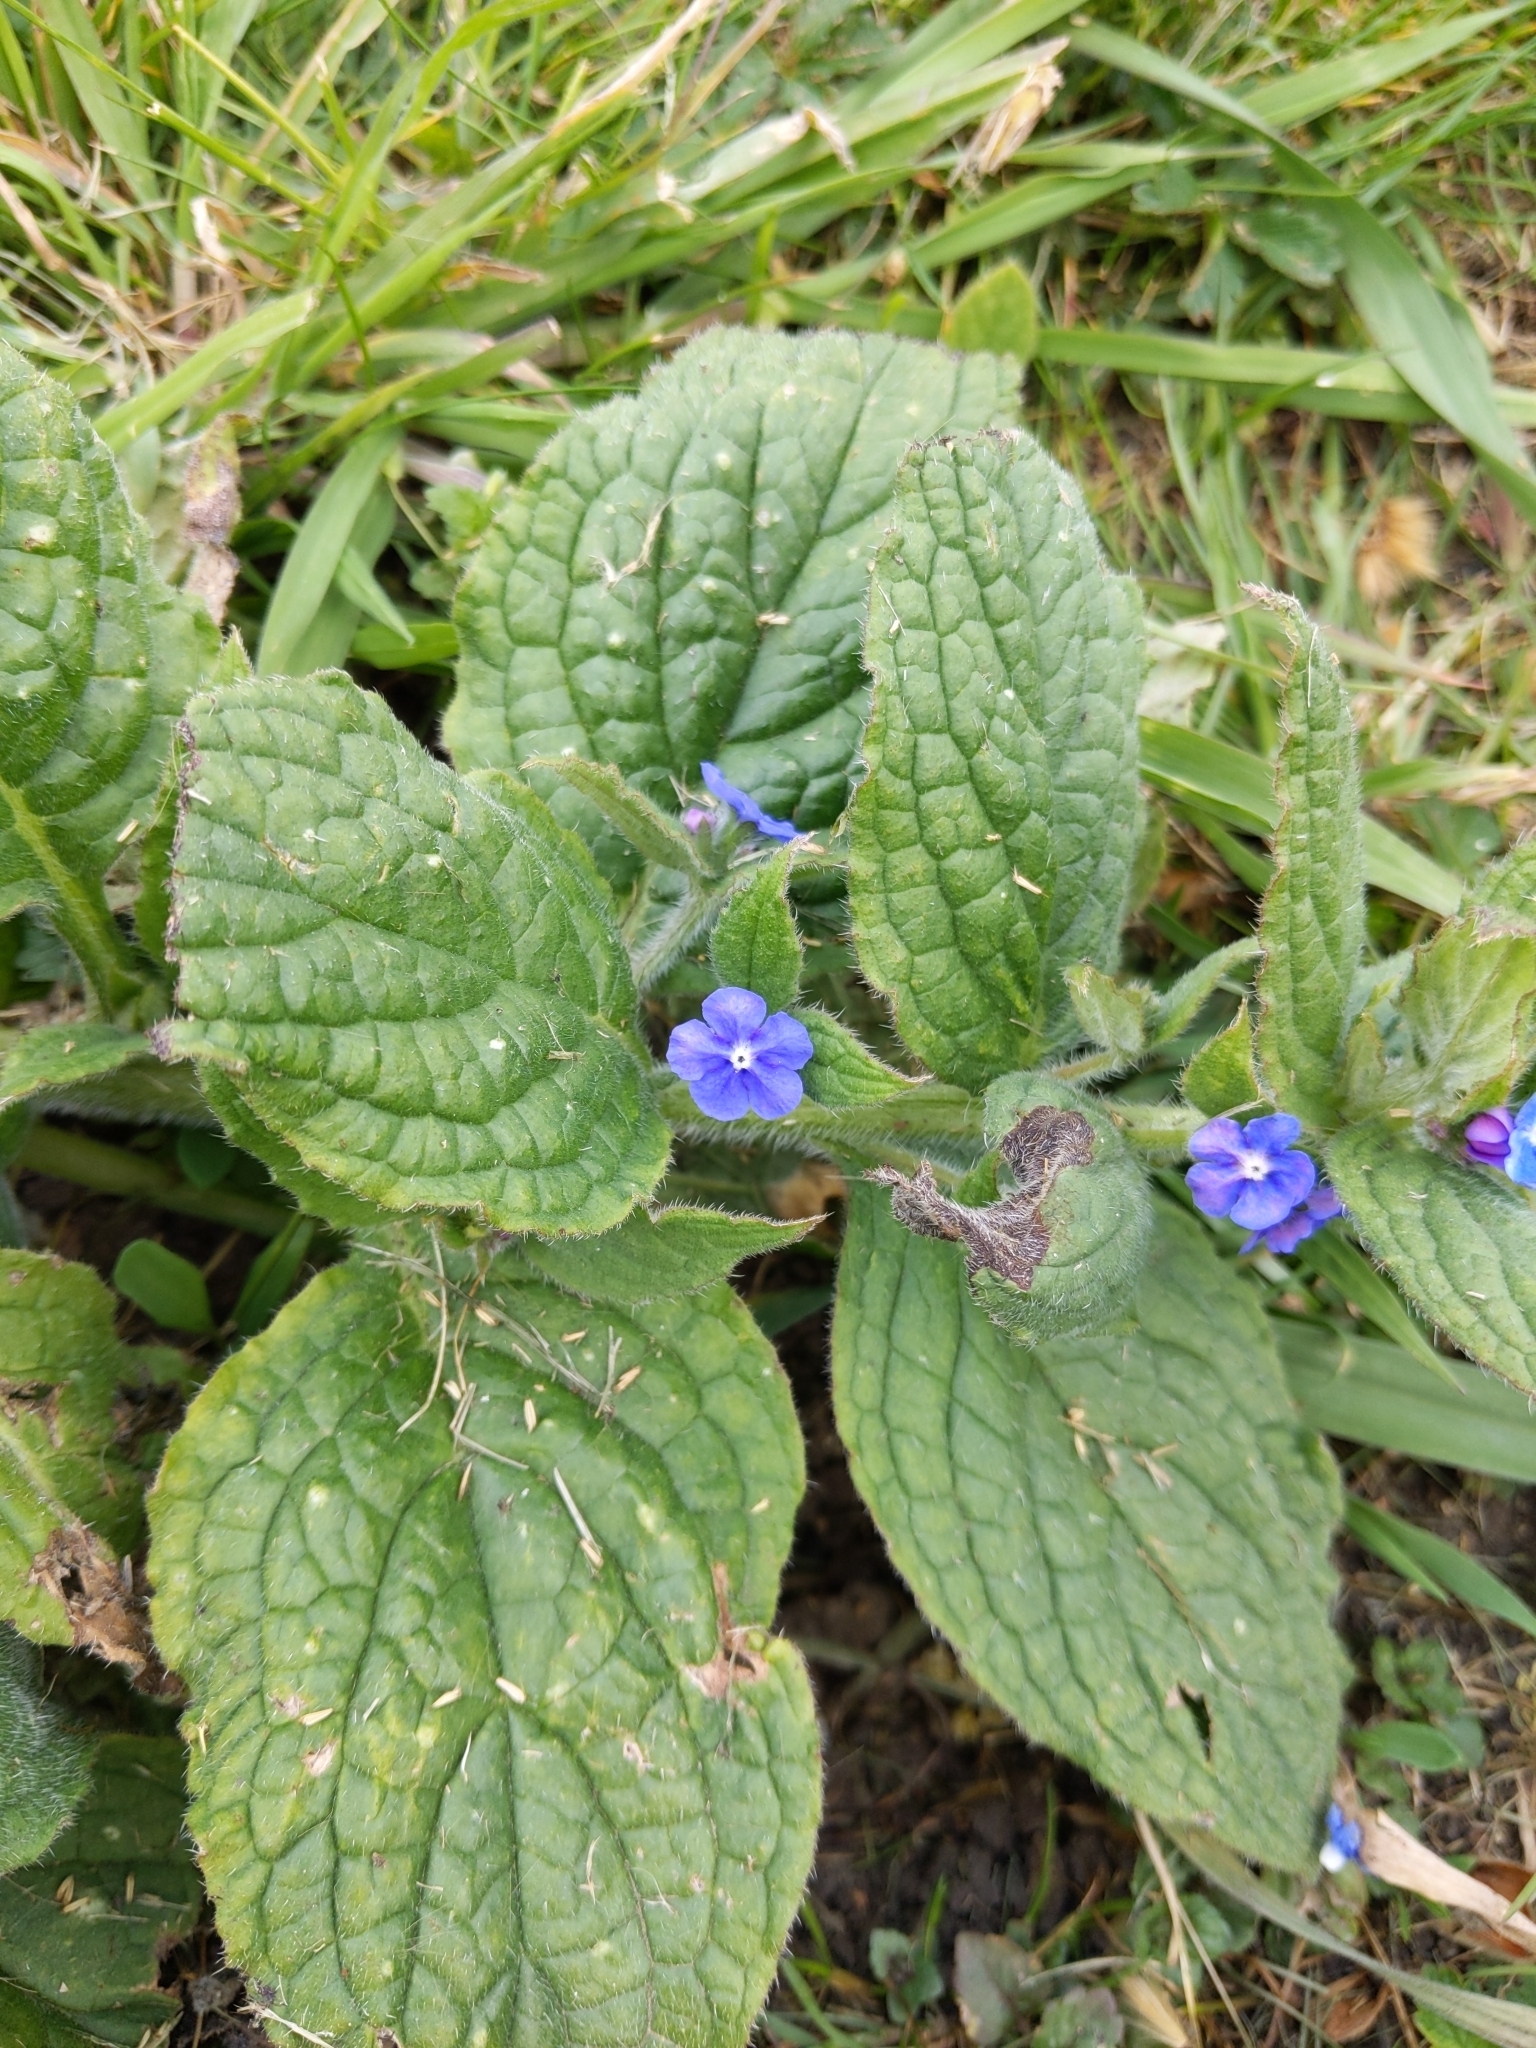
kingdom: Plantae
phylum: Tracheophyta
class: Magnoliopsida
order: Boraginales
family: Boraginaceae
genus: Pentaglottis
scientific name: Pentaglottis sempervirens
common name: Green alkanet
